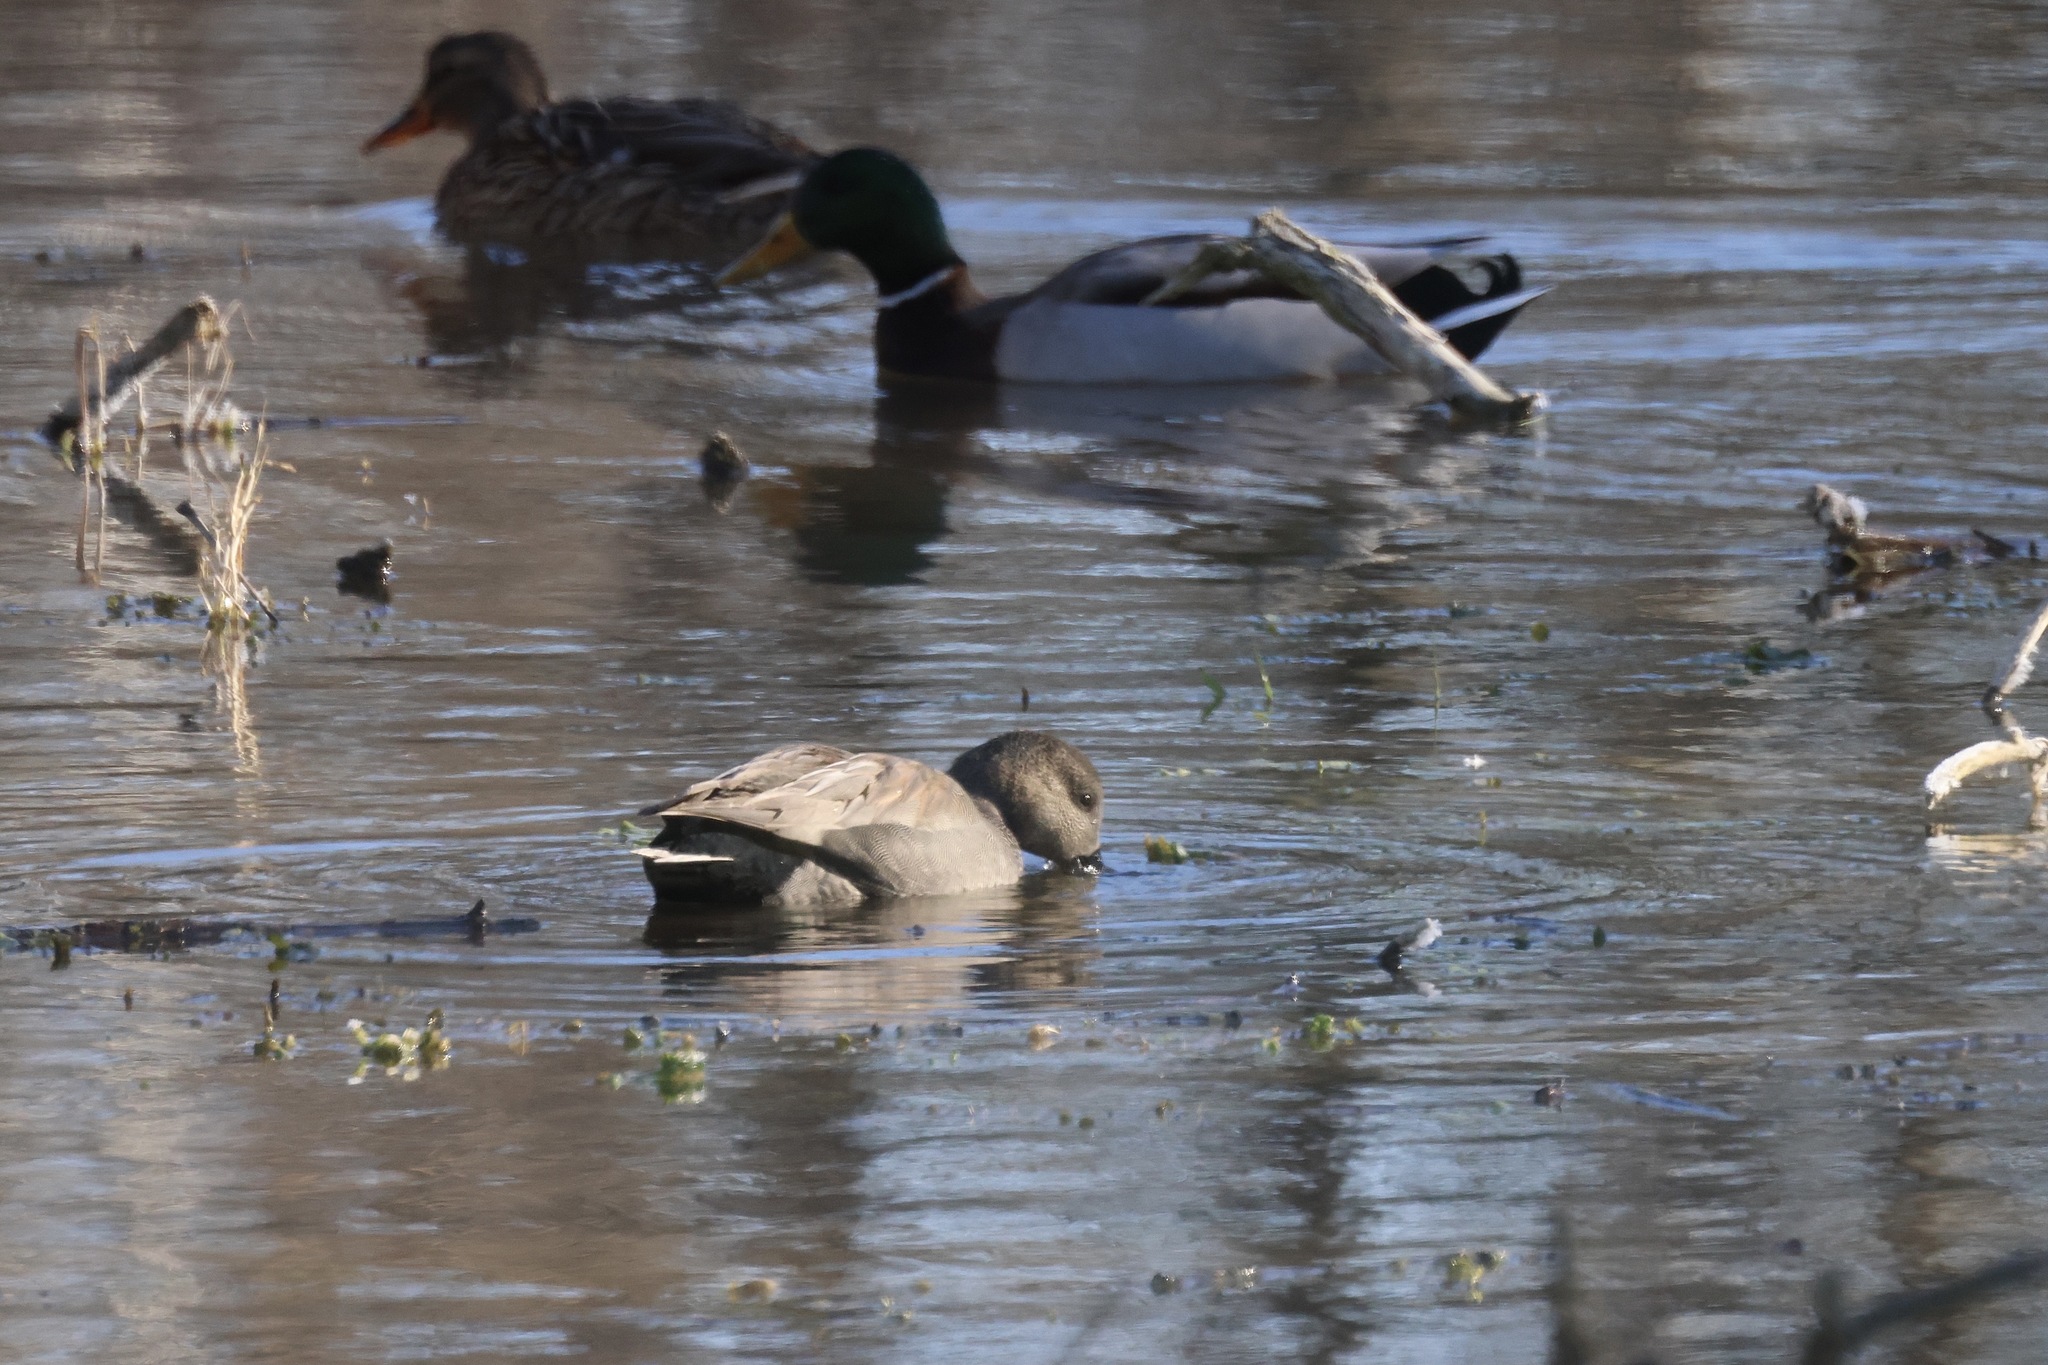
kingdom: Animalia
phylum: Chordata
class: Aves
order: Anseriformes
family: Anatidae
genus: Mareca
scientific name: Mareca strepera
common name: Gadwall
